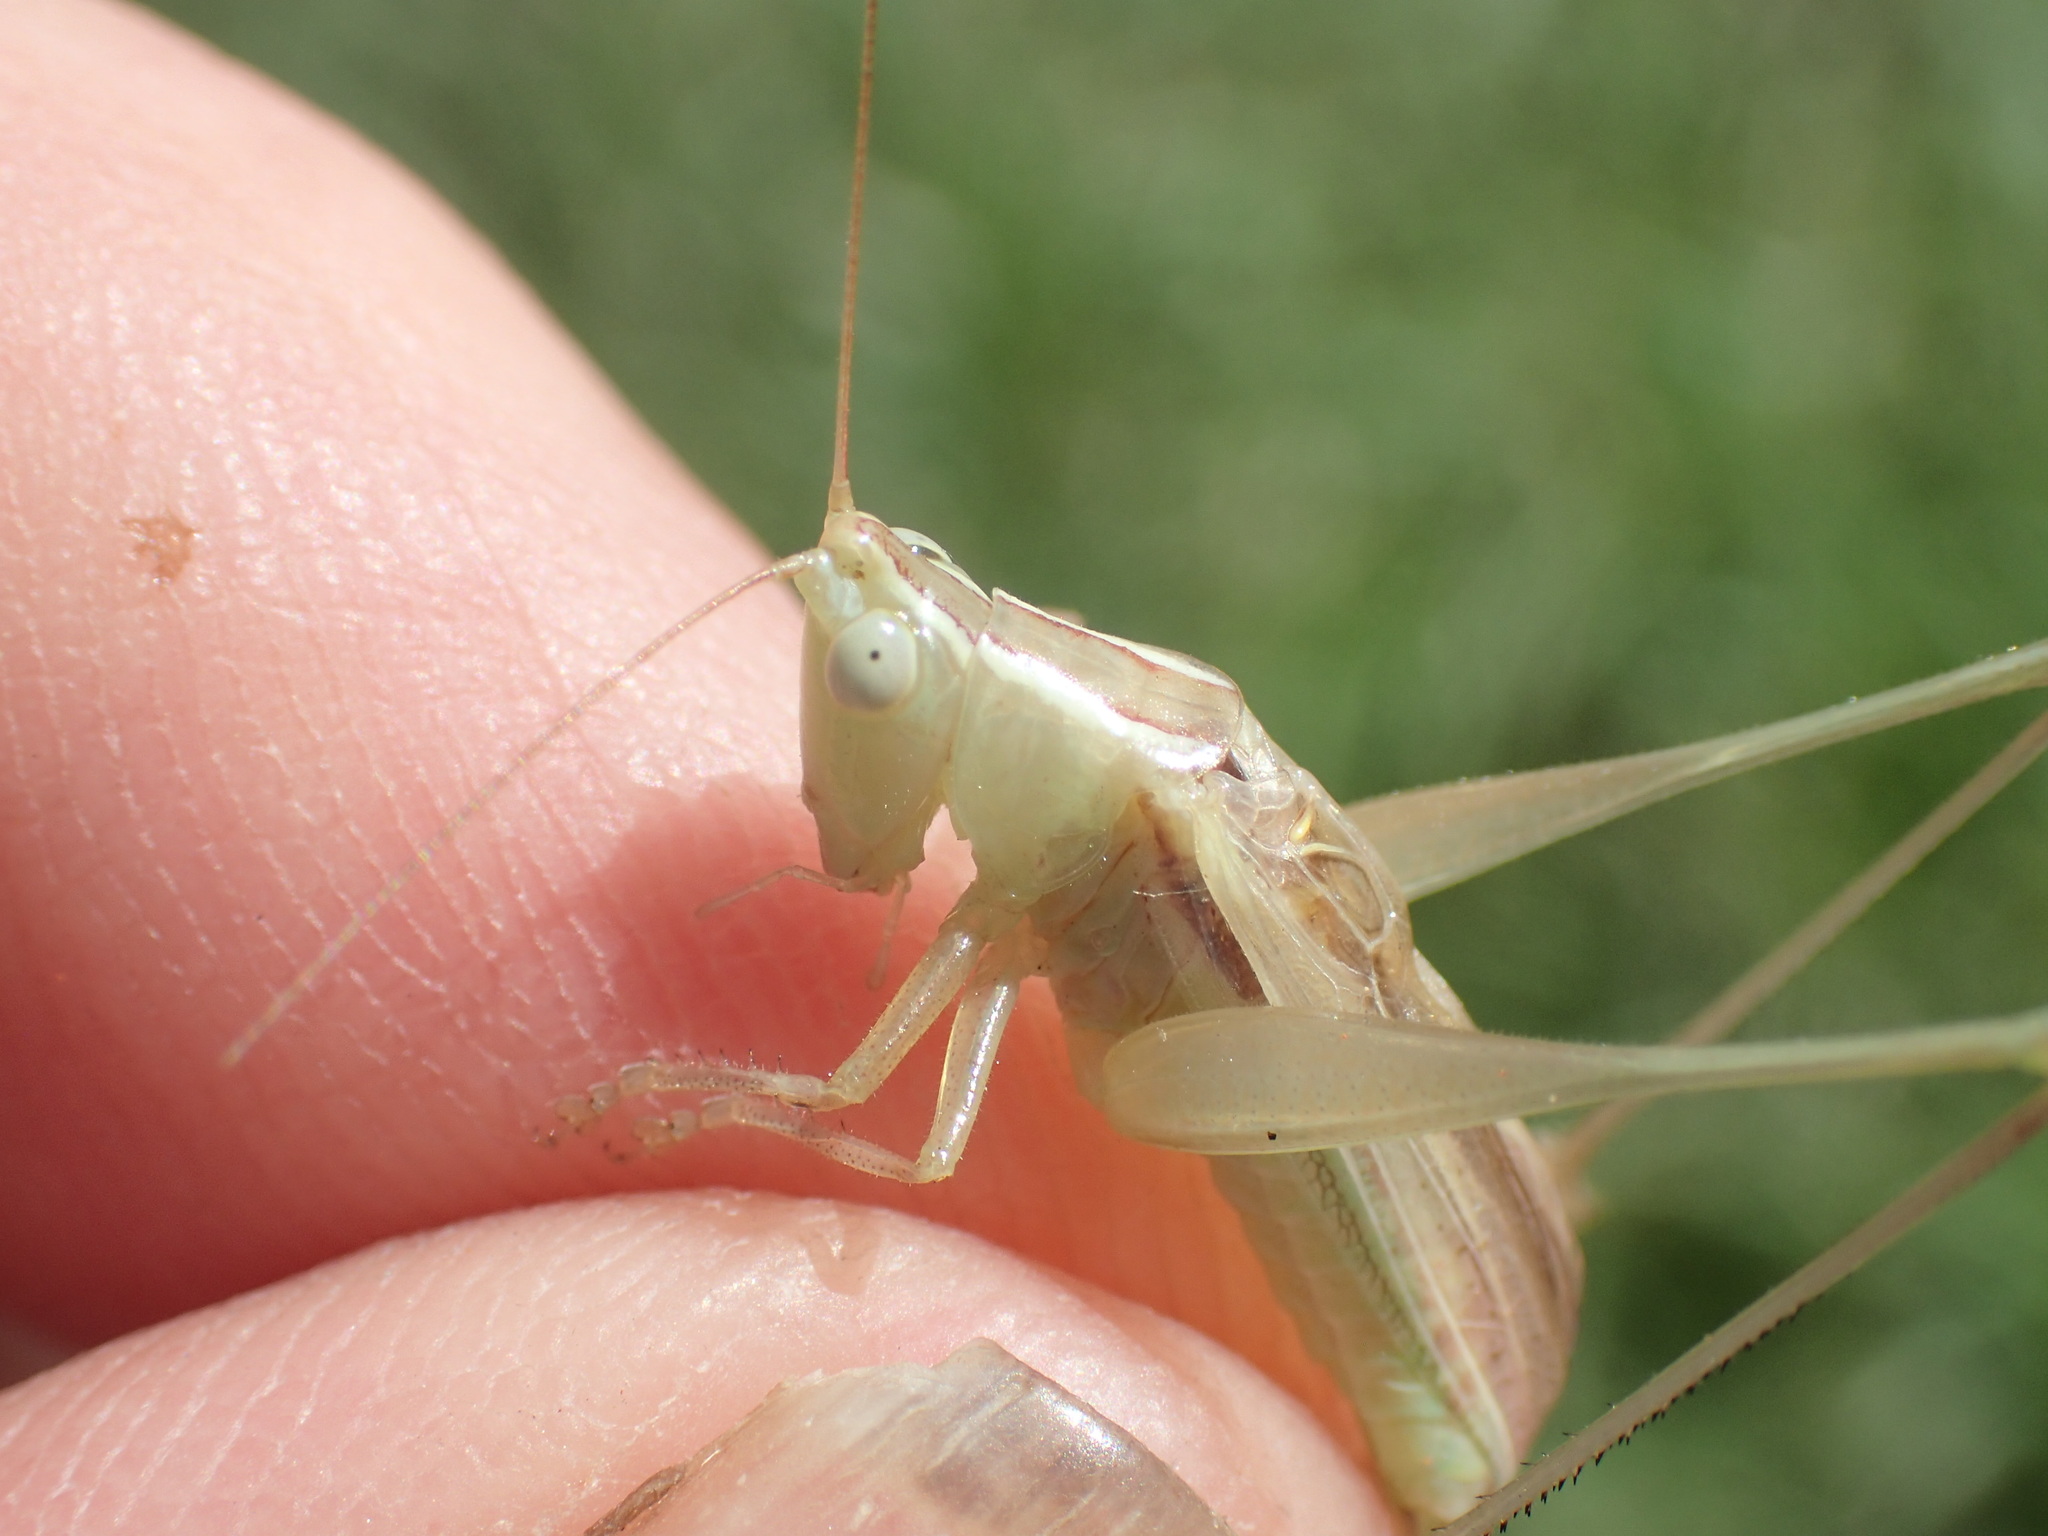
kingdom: Animalia
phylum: Arthropoda
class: Insecta
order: Orthoptera
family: Tettigoniidae
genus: Conocephalus
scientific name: Conocephalus upoluensis
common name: Upolu meadow katydid
